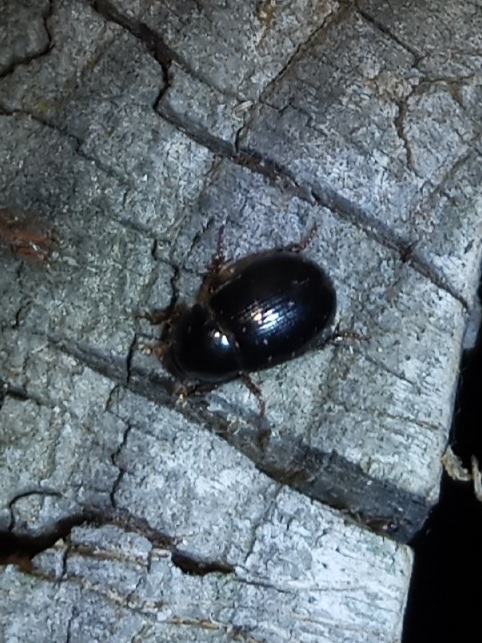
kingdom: Animalia
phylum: Arthropoda
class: Insecta
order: Coleoptera
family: Hybosoridae
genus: Hybosorus
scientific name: Hybosorus illigeri
